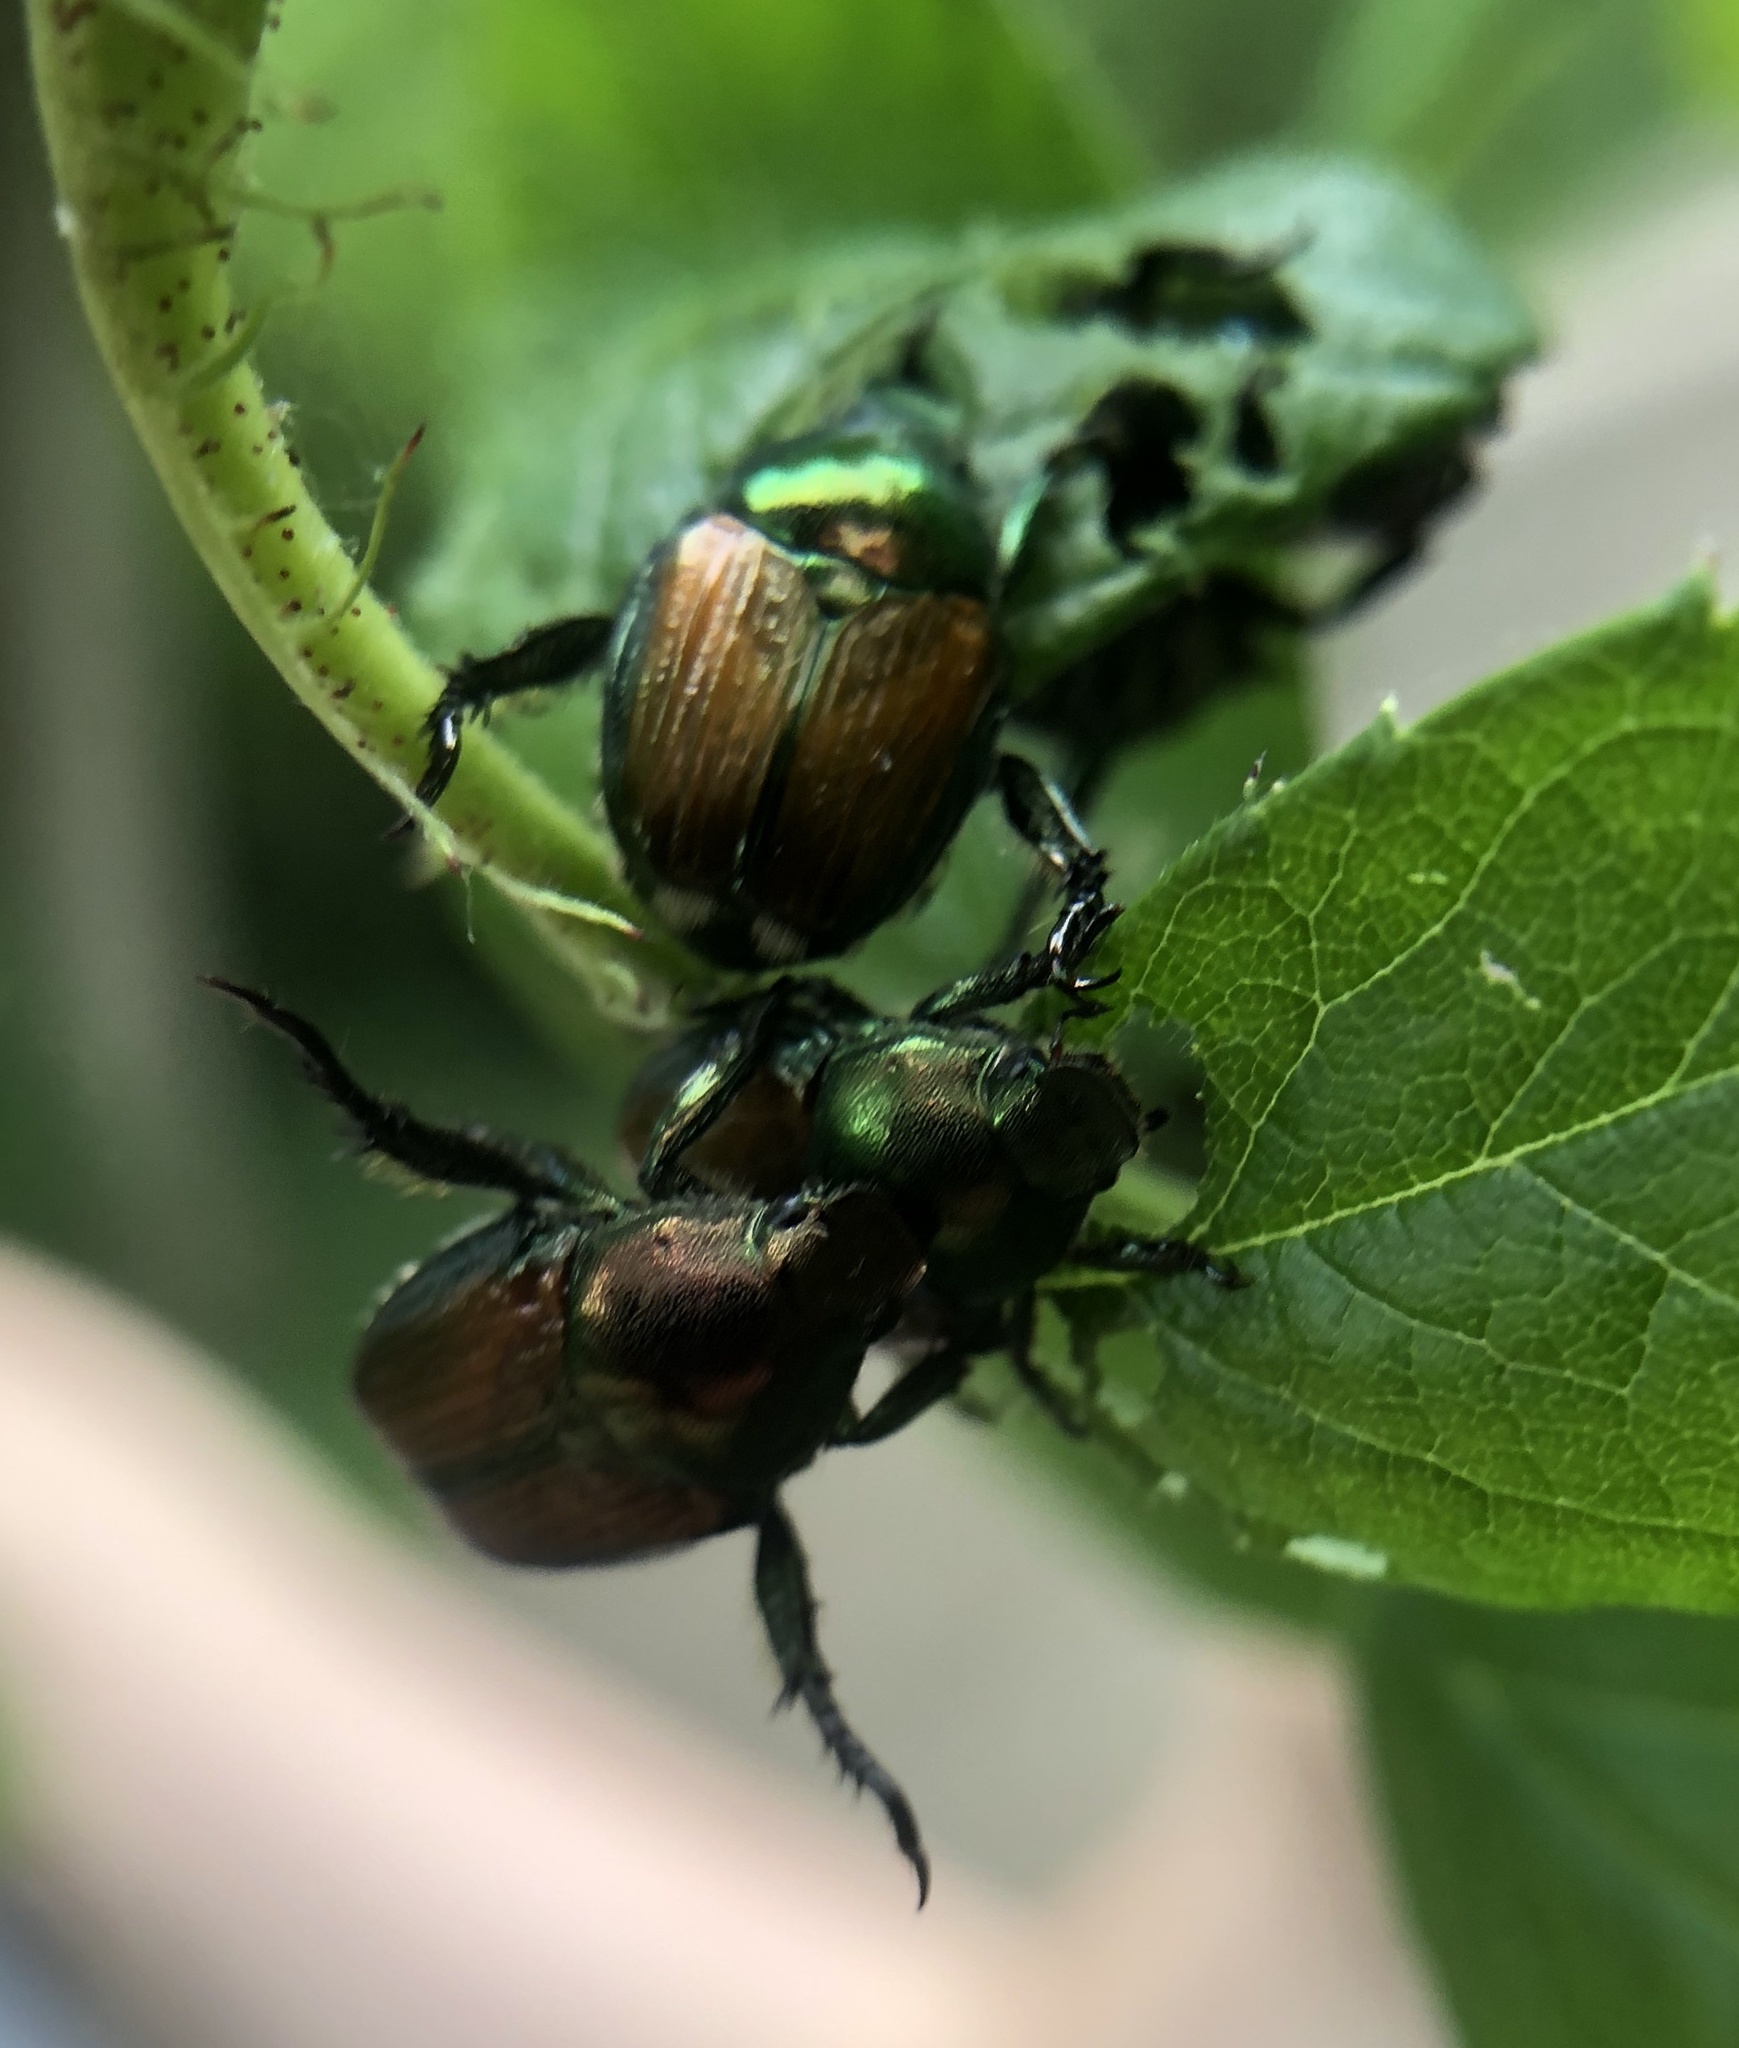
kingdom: Animalia
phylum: Arthropoda
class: Insecta
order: Coleoptera
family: Scarabaeidae
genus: Popillia
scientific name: Popillia japonica
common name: Japanese beetle
